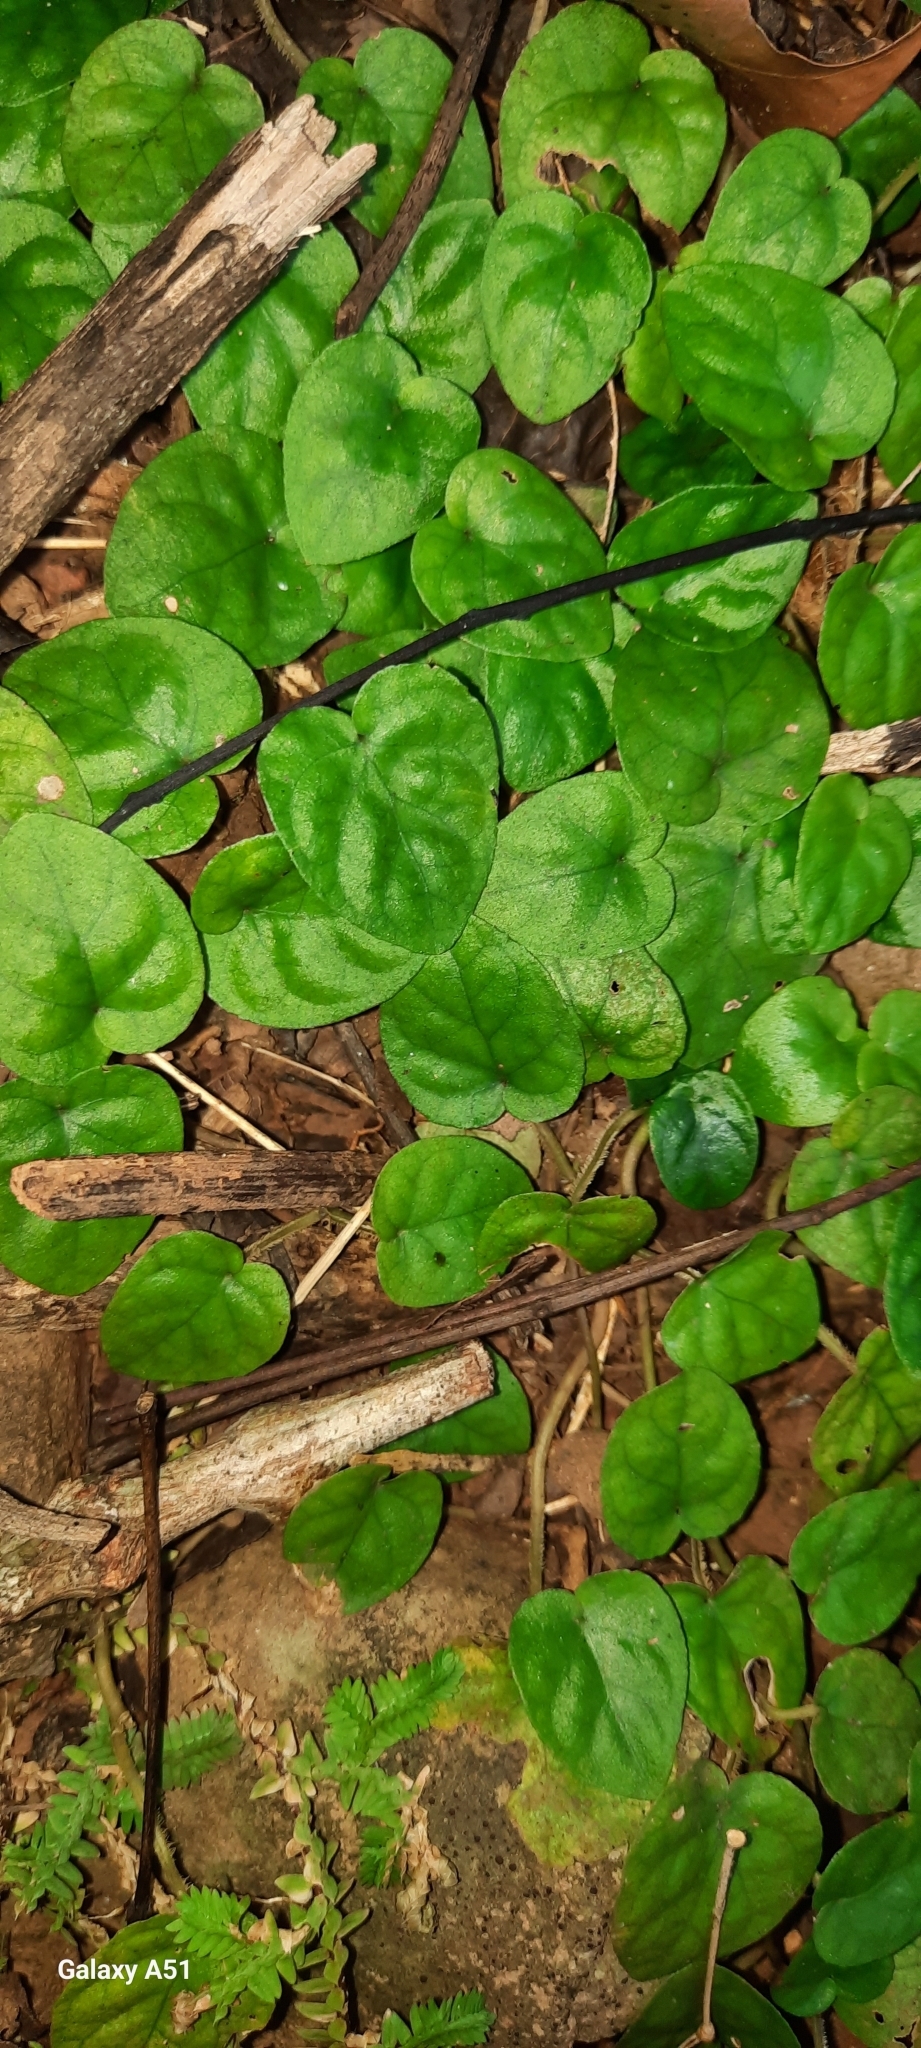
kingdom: Plantae
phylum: Tracheophyta
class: Magnoliopsida
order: Gentianales
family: Rubiaceae
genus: Geophila
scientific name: Geophila repens
